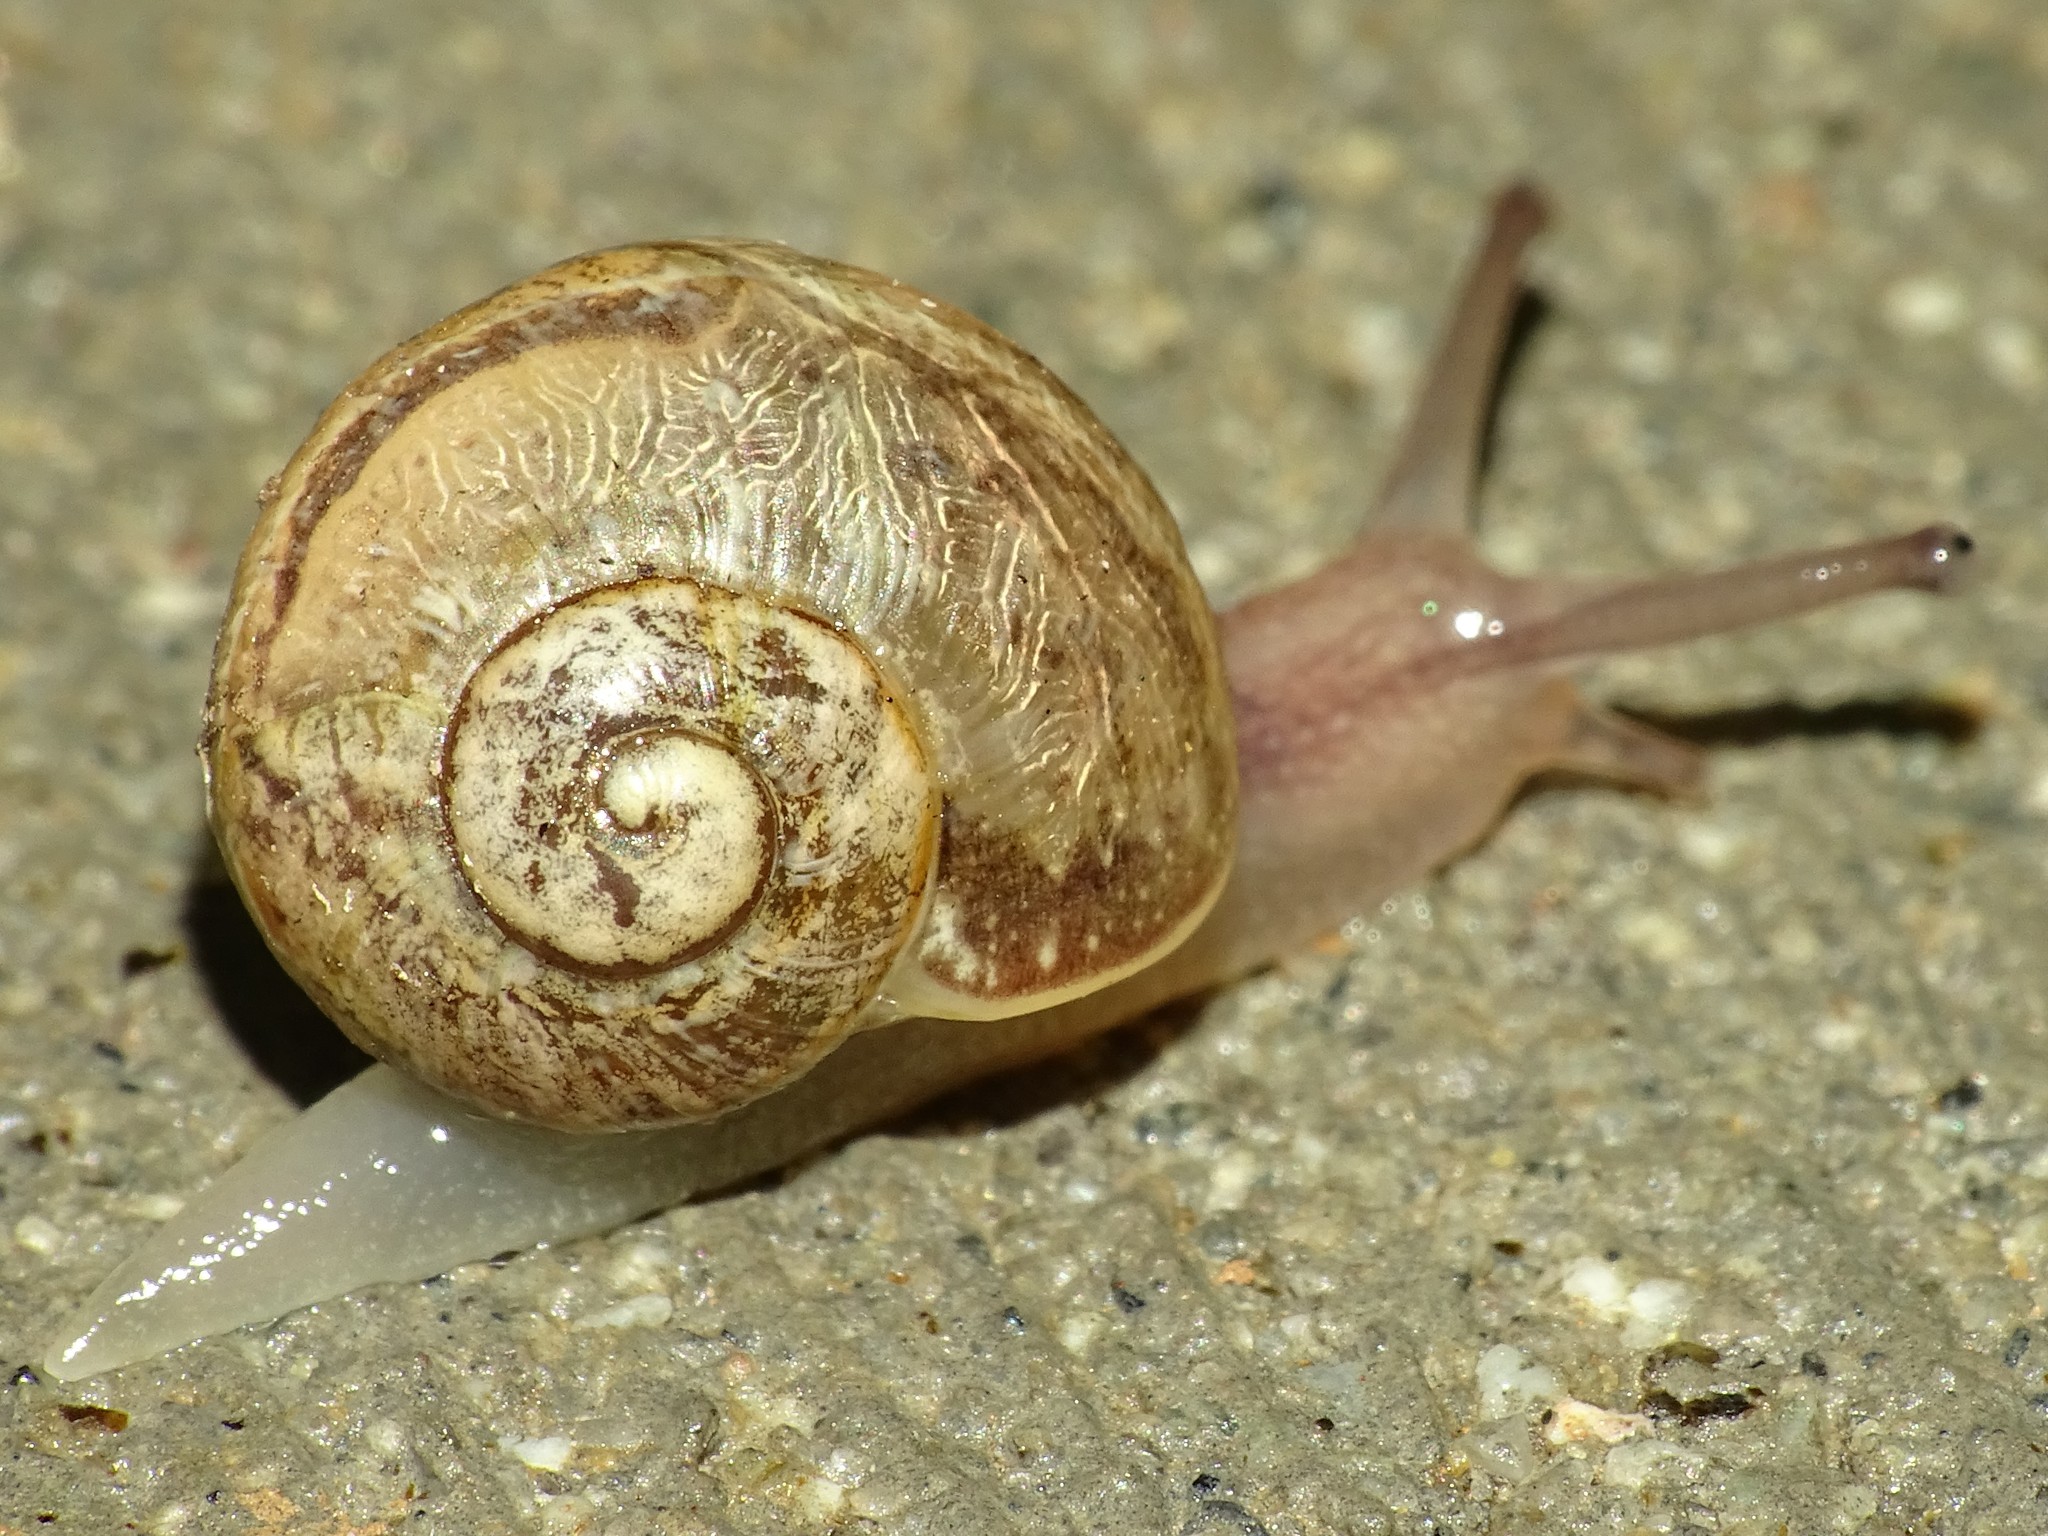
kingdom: Animalia
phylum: Mollusca
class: Gastropoda
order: Stylommatophora
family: Helicidae
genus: Cornu
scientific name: Cornu aspersum
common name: Brown garden snail
